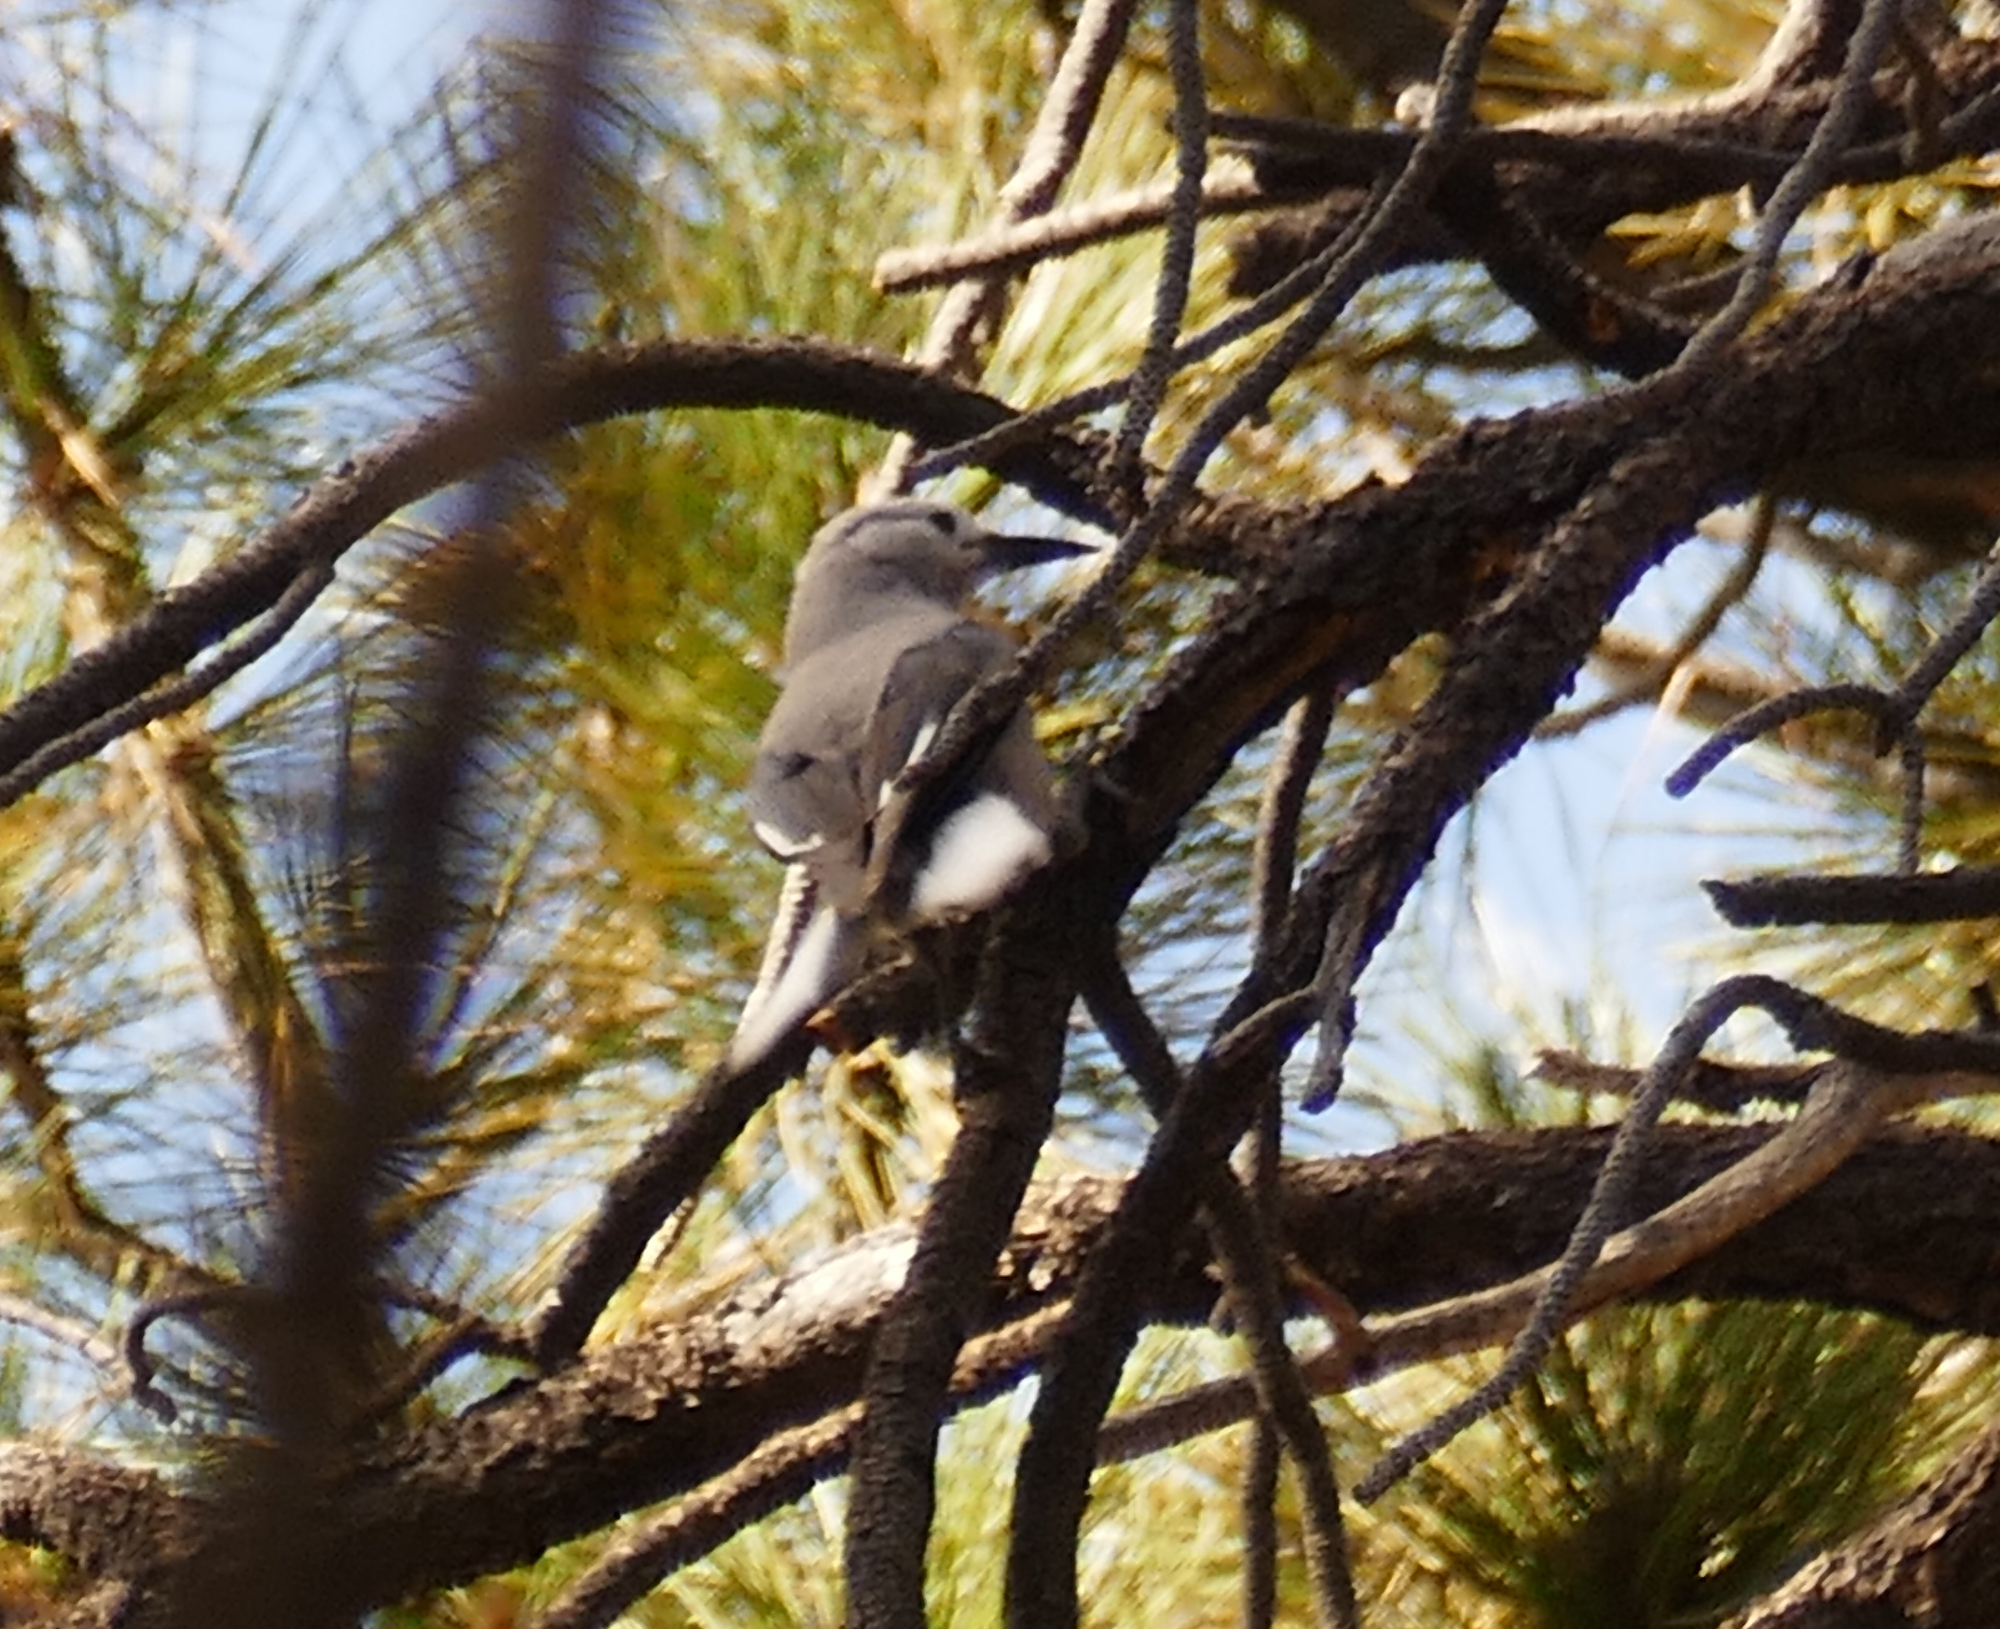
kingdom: Animalia
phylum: Chordata
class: Aves
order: Passeriformes
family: Corvidae
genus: Nucifraga
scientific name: Nucifraga columbiana
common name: Clark's nutcracker
